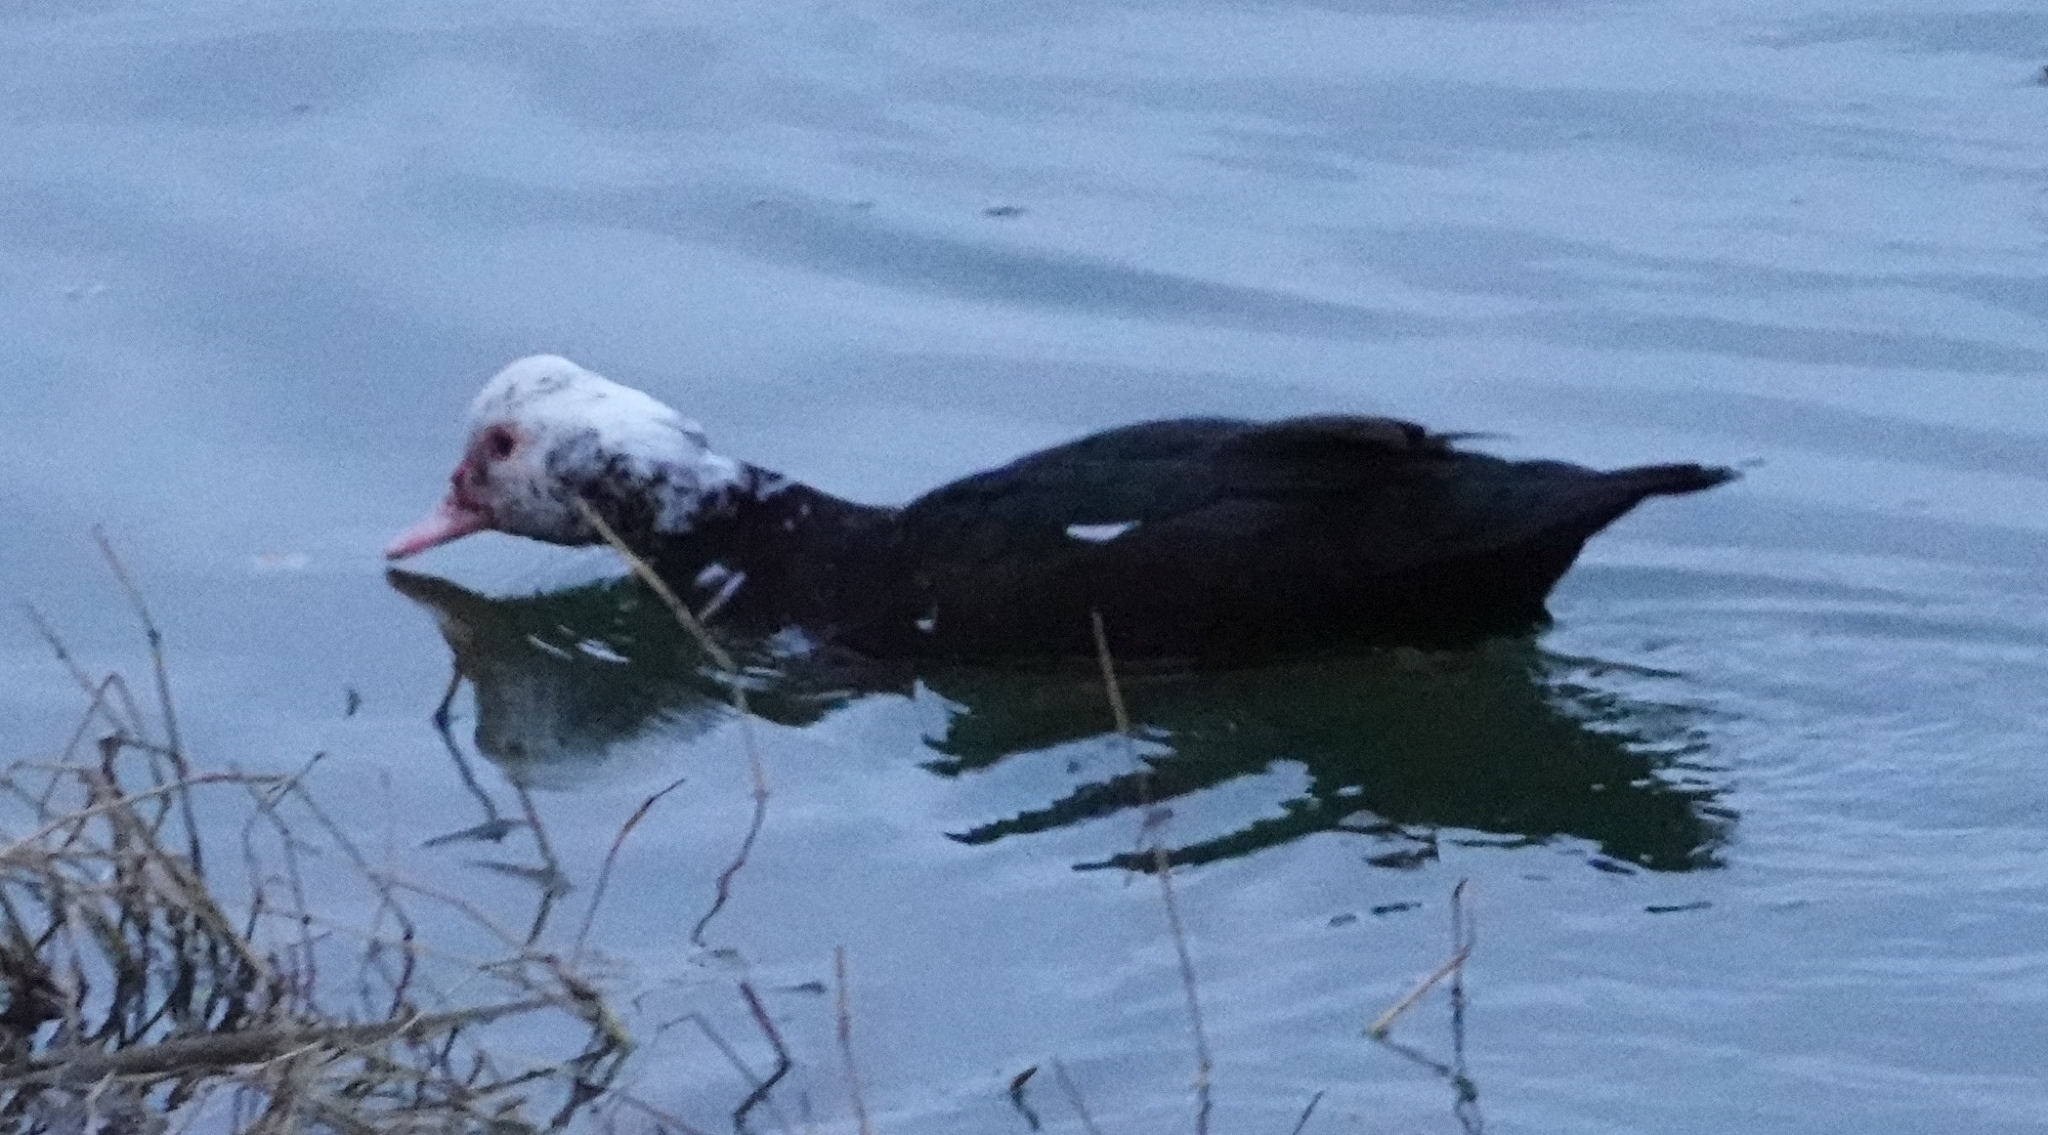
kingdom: Animalia
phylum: Chordata
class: Aves
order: Anseriformes
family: Anatidae
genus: Cairina
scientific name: Cairina moschata
